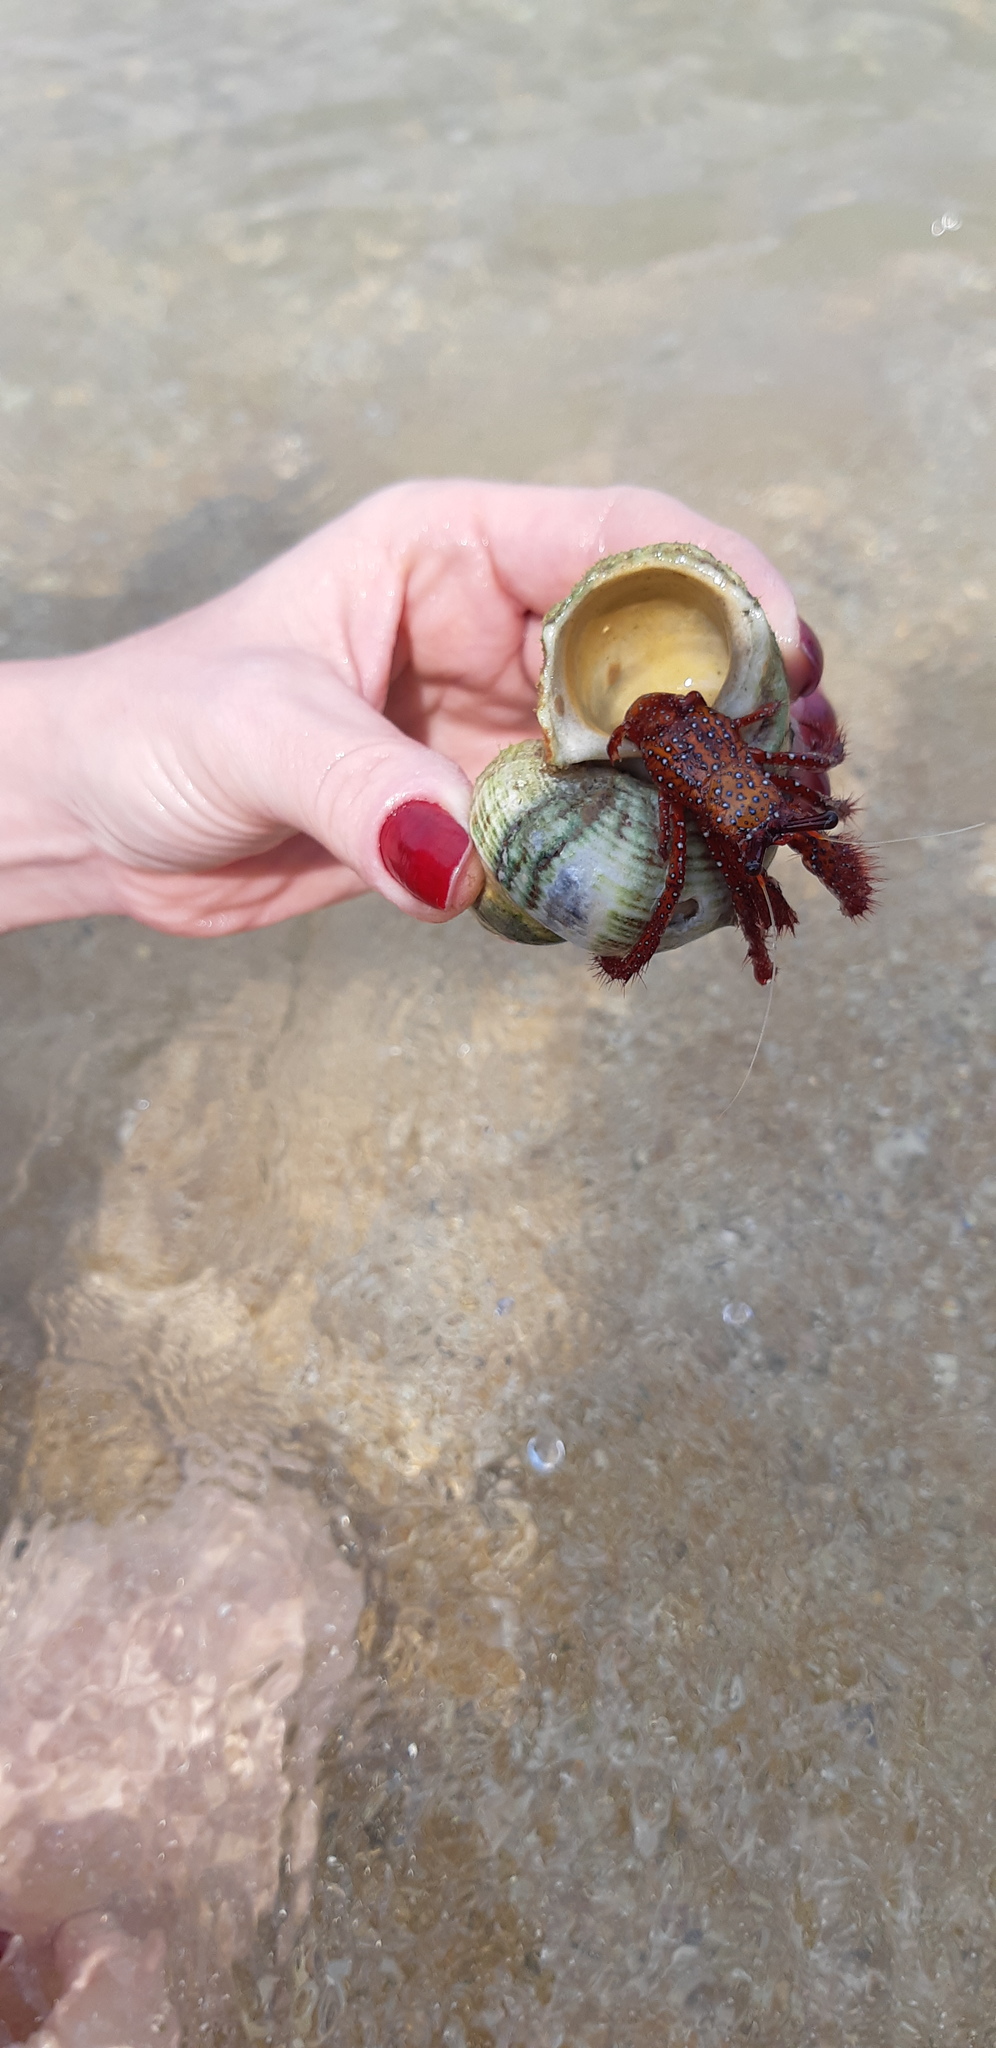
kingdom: Animalia
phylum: Arthropoda
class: Malacostraca
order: Decapoda
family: Diogenidae
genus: Dardanus
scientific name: Dardanus megistos
